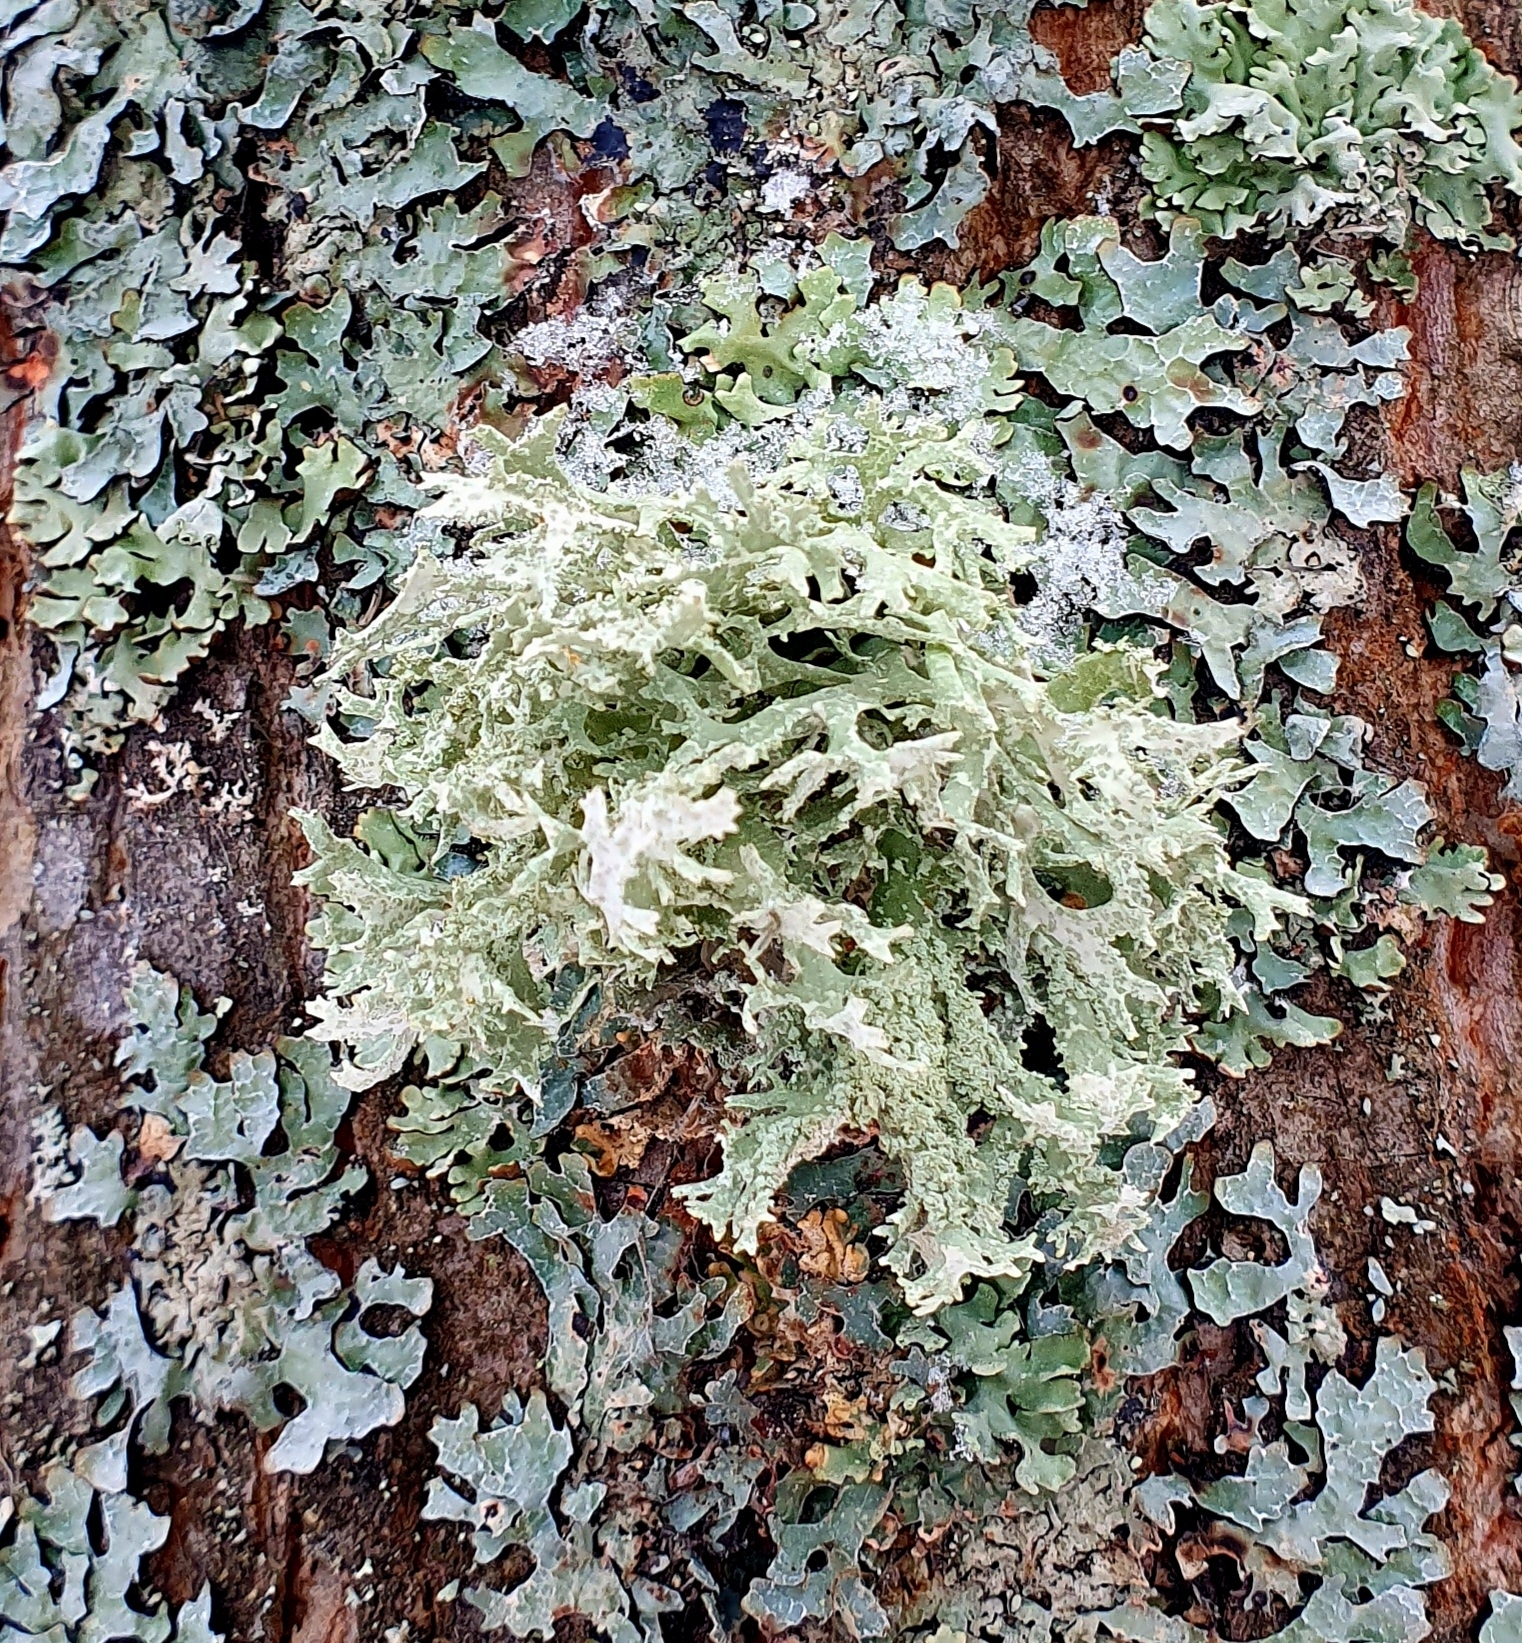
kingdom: Fungi
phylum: Ascomycota
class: Lecanoromycetes
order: Lecanorales
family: Parmeliaceae
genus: Evernia
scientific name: Evernia prunastri
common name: Oak moss
